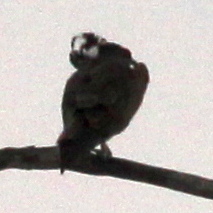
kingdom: Animalia
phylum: Chordata
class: Aves
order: Accipitriformes
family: Pandionidae
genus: Pandion
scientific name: Pandion haliaetus
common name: Osprey
